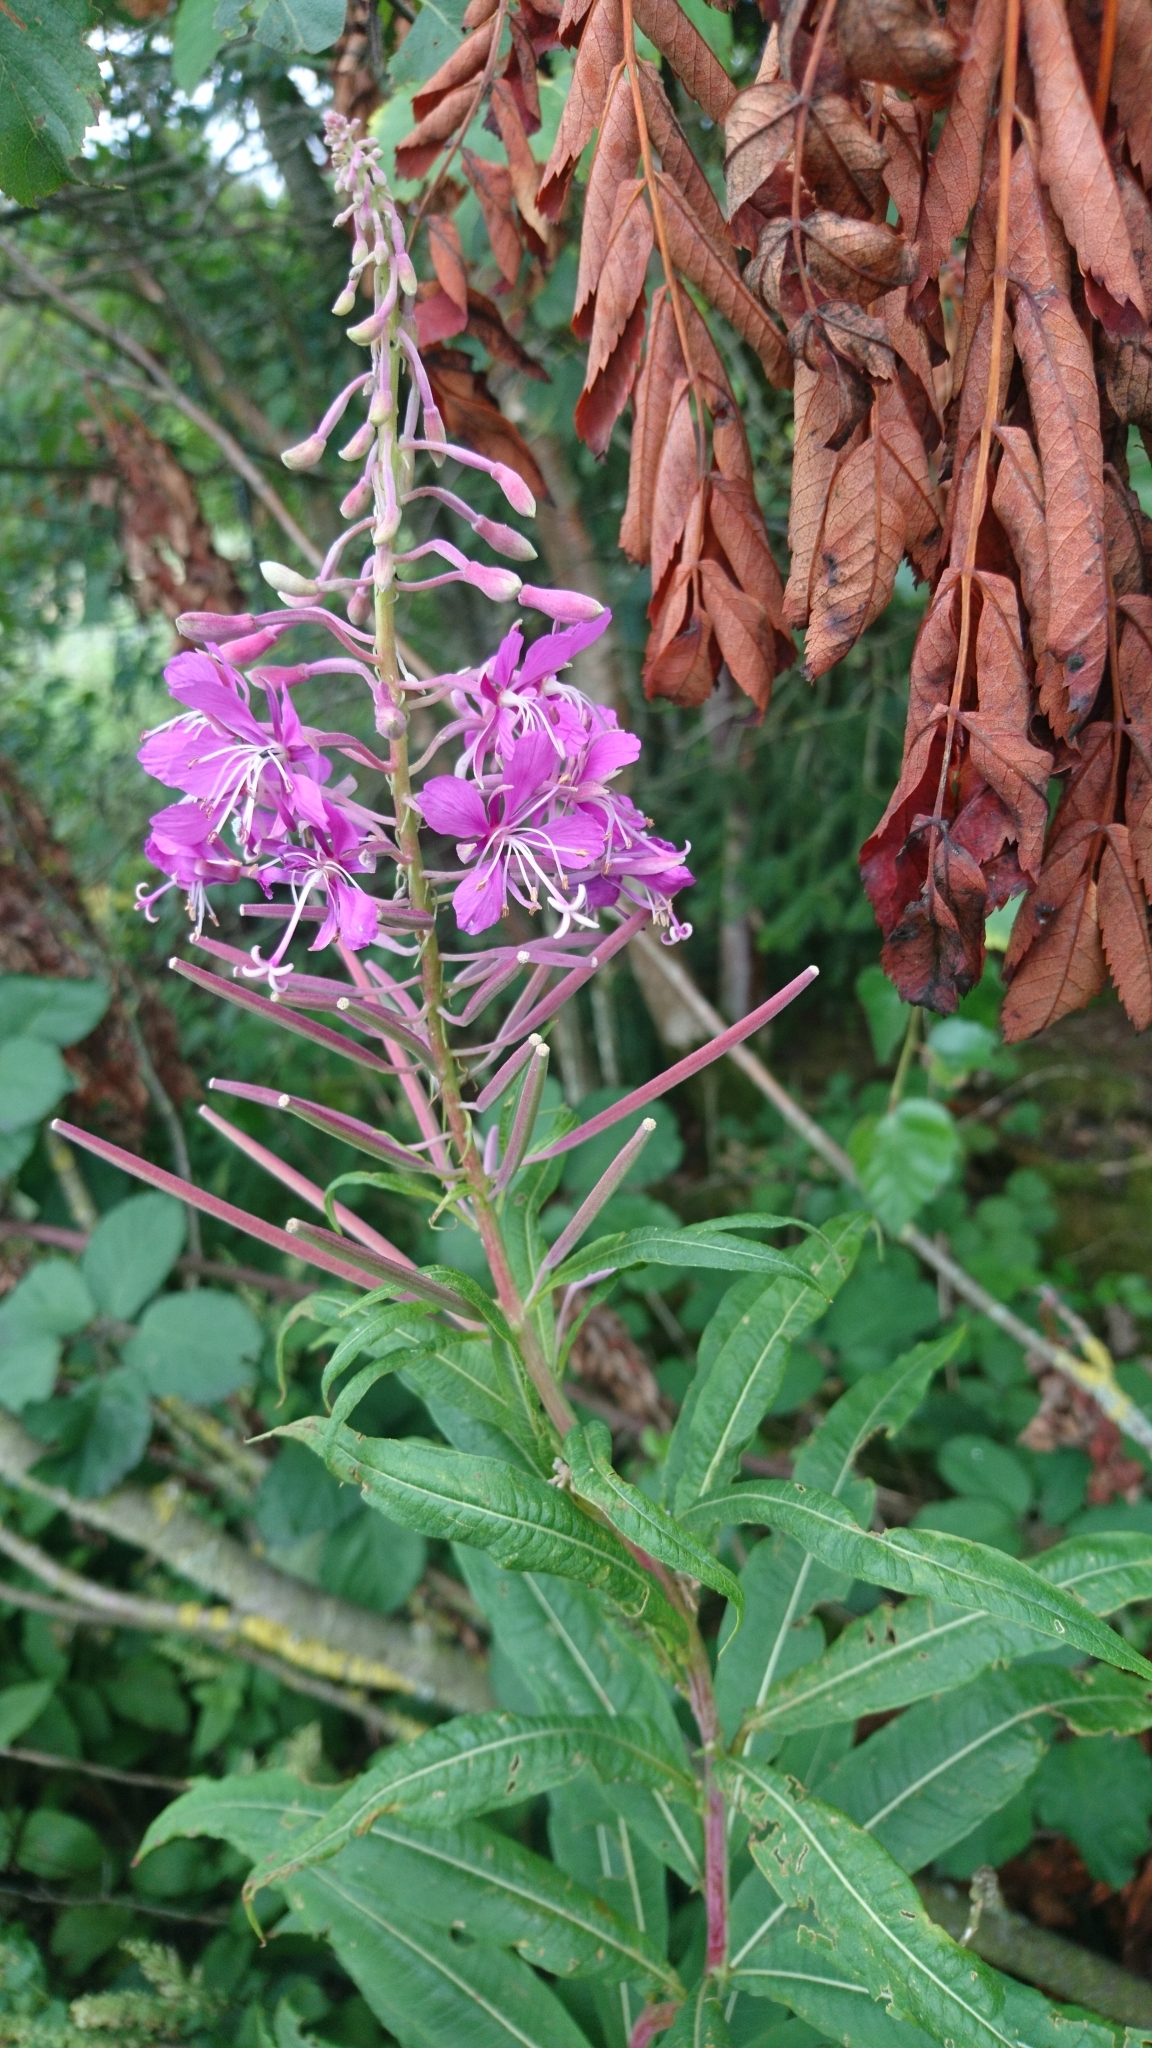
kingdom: Plantae
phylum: Tracheophyta
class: Magnoliopsida
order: Myrtales
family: Onagraceae
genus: Chamaenerion
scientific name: Chamaenerion angustifolium
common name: Fireweed
